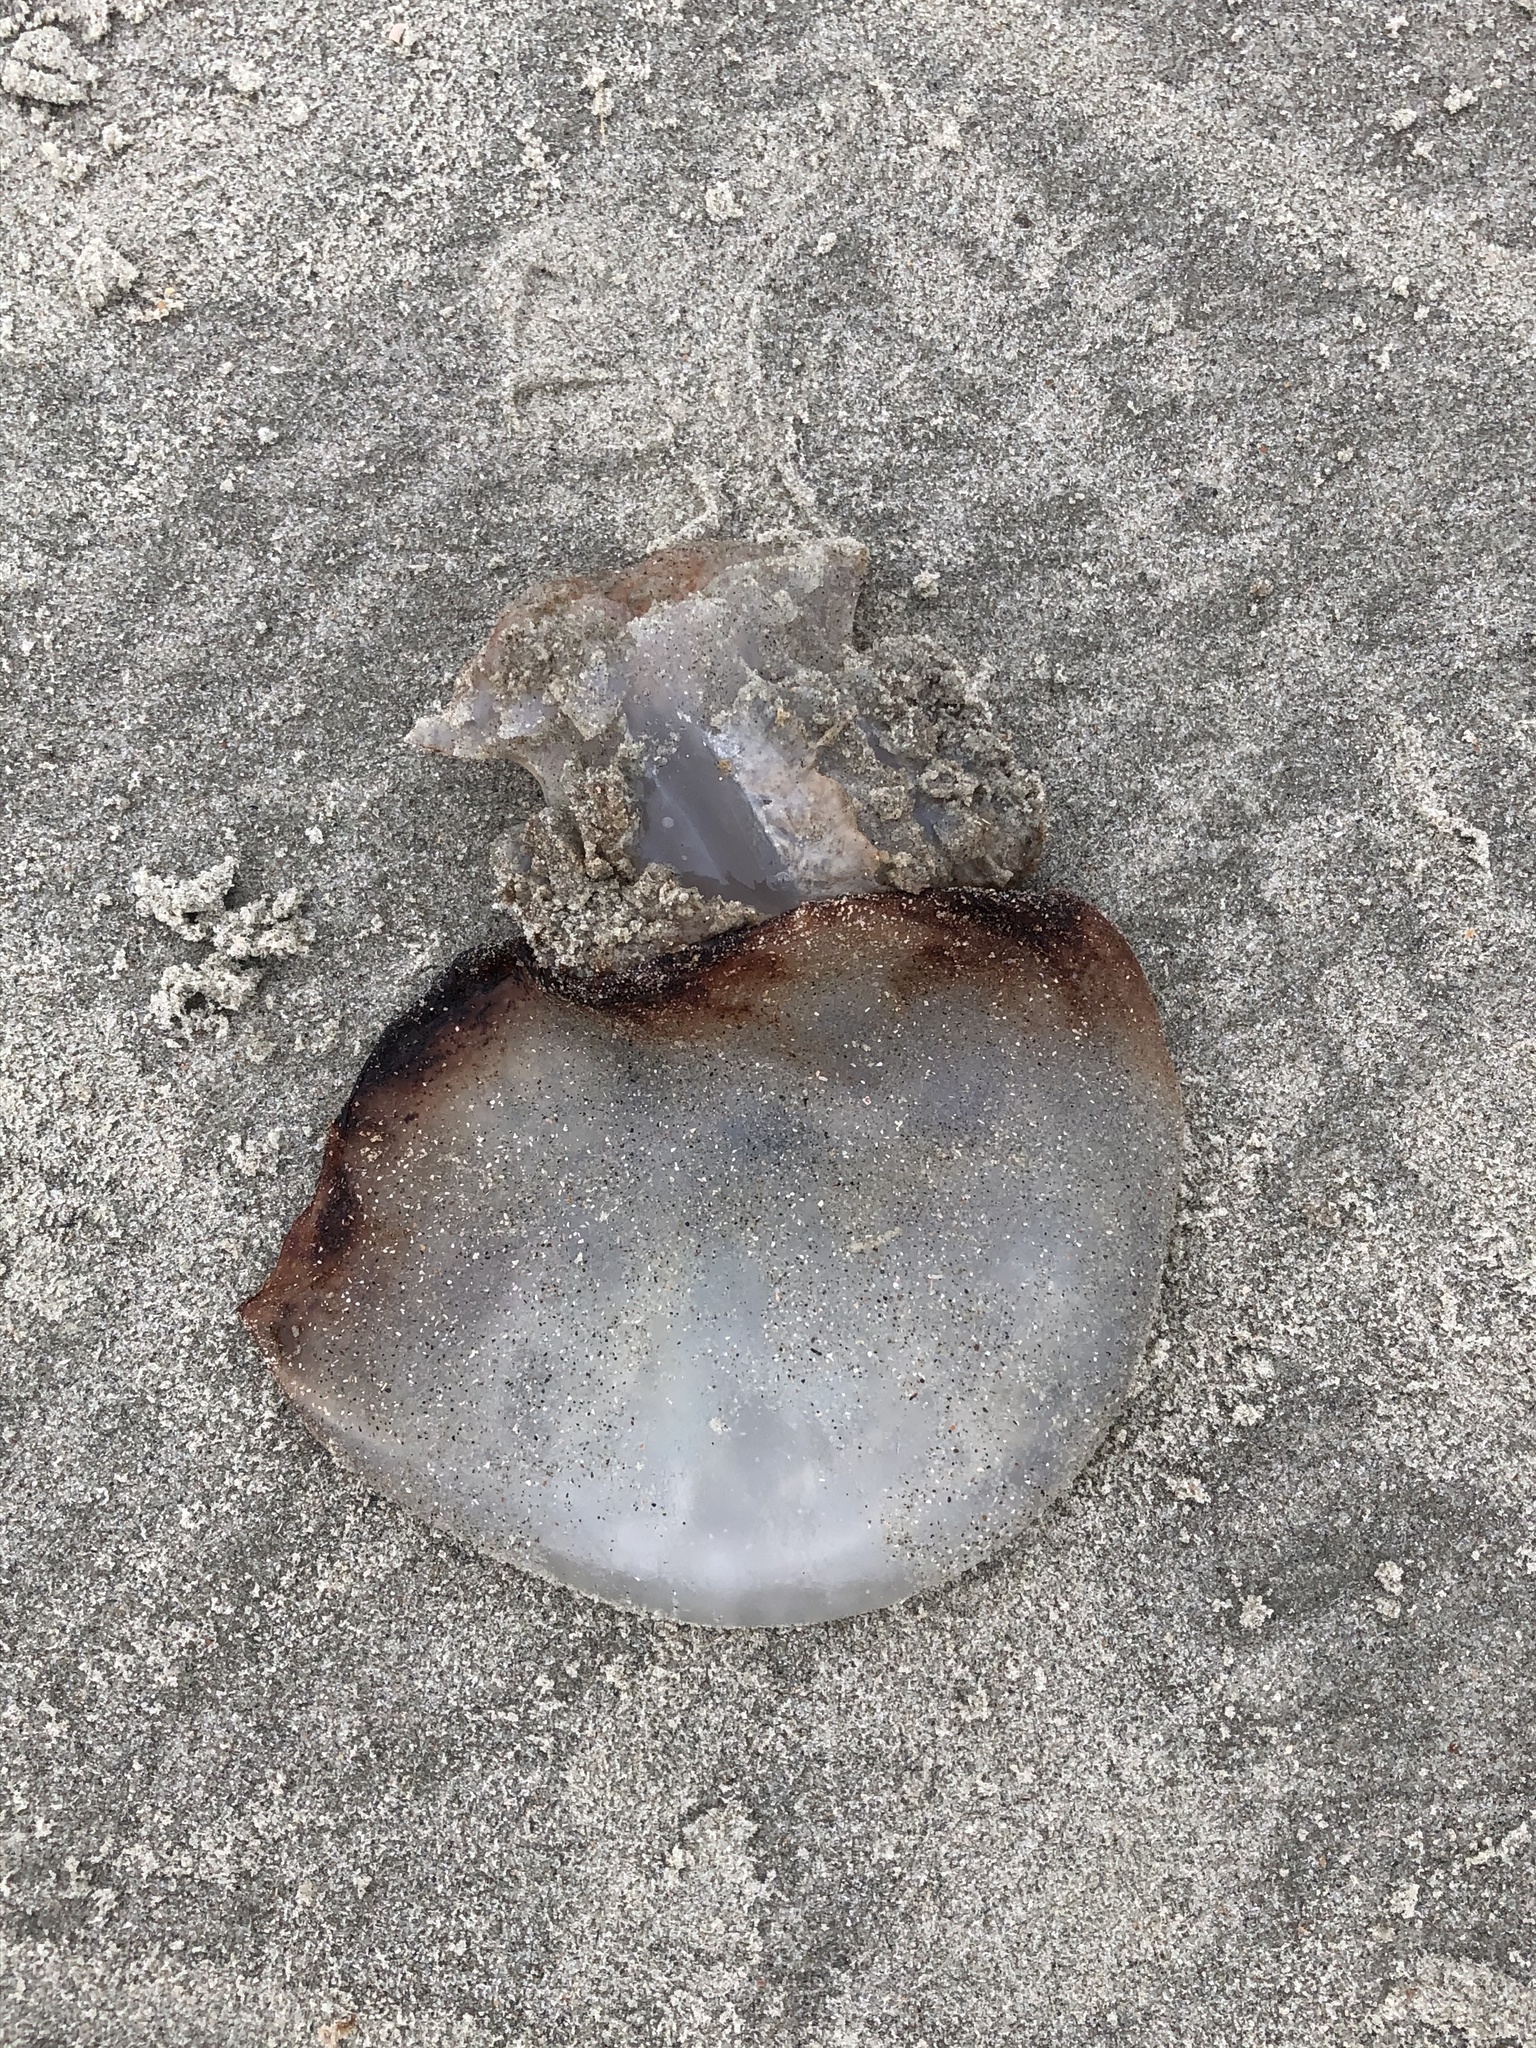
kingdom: Animalia
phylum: Cnidaria
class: Scyphozoa
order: Rhizostomeae
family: Stomolophidae
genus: Stomolophus
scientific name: Stomolophus meleagris
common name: Cabbagehead
